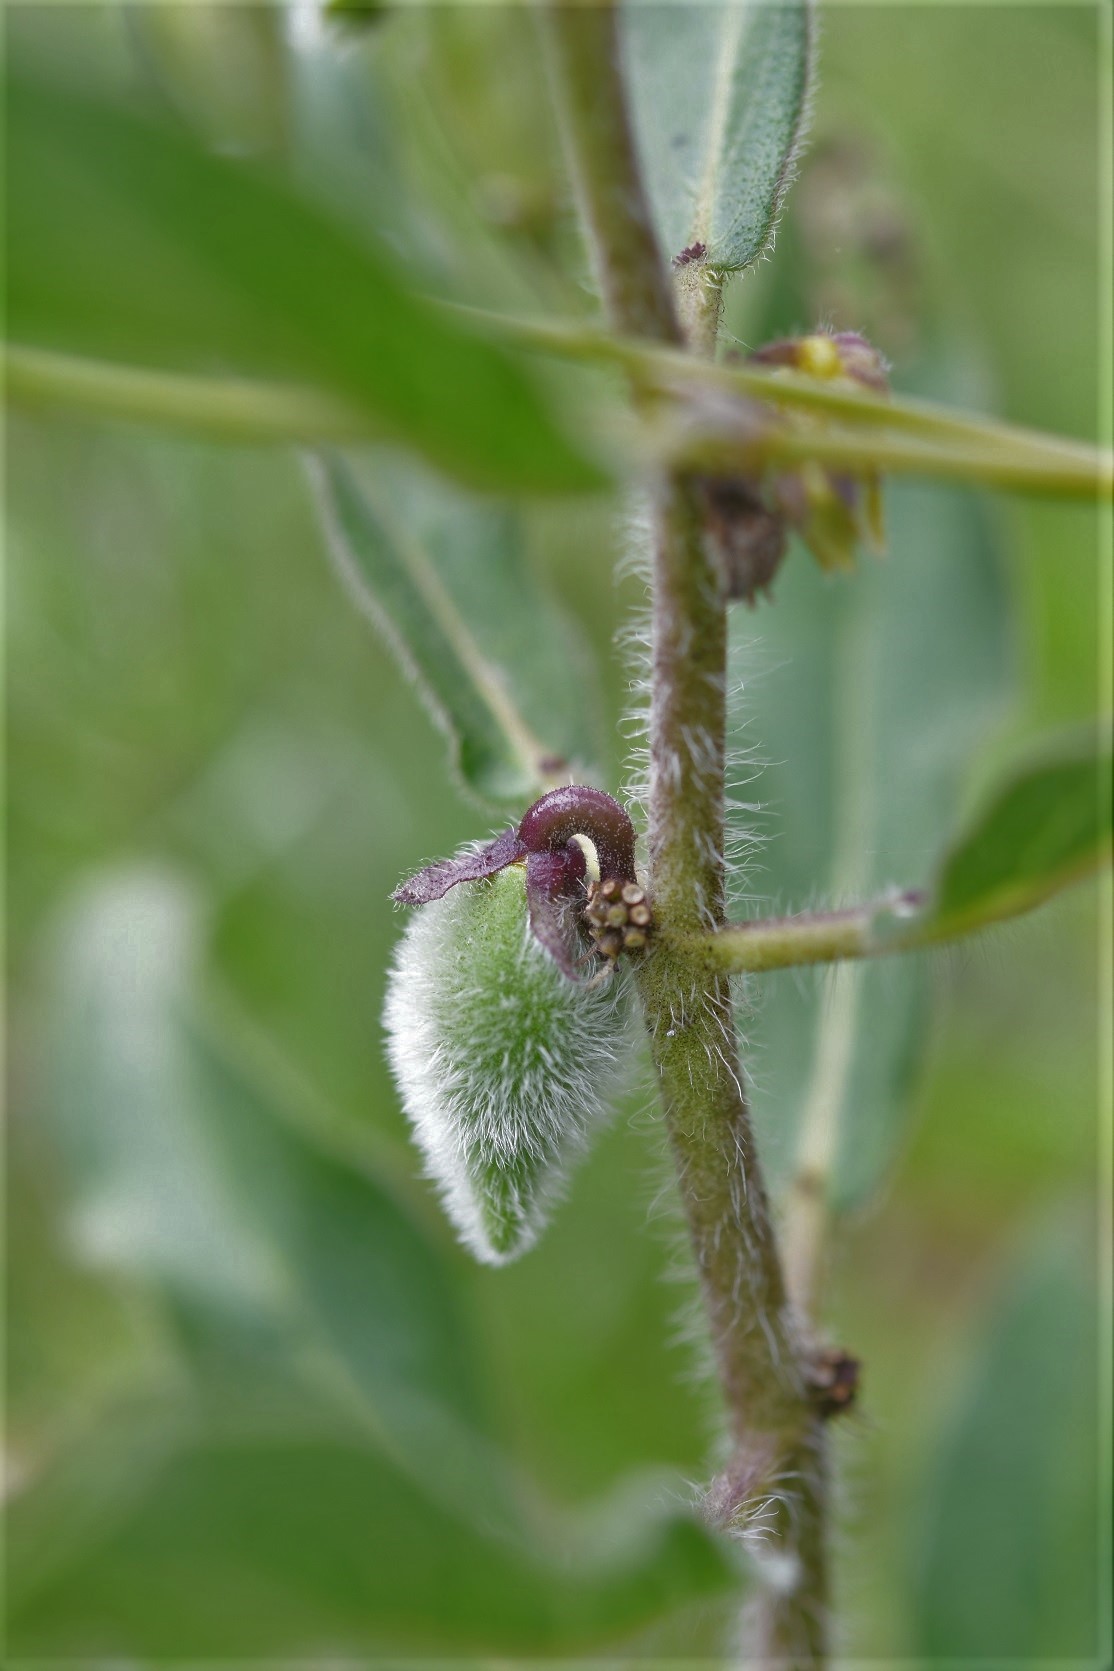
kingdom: Plantae
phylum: Tracheophyta
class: Magnoliopsida
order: Gentianales
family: Apocynaceae
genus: Pherotrichis
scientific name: Pherotrichis villosa
